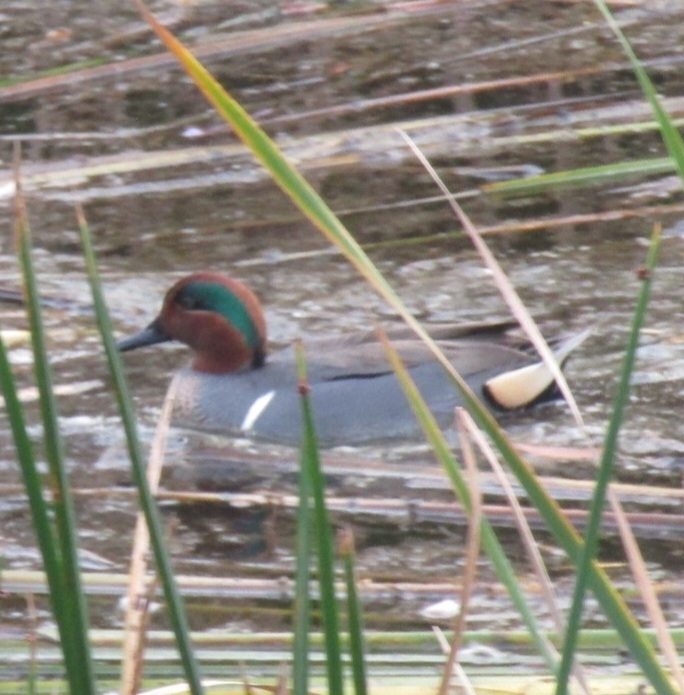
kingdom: Animalia
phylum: Chordata
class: Aves
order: Anseriformes
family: Anatidae
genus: Anas
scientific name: Anas crecca
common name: Eurasian teal
